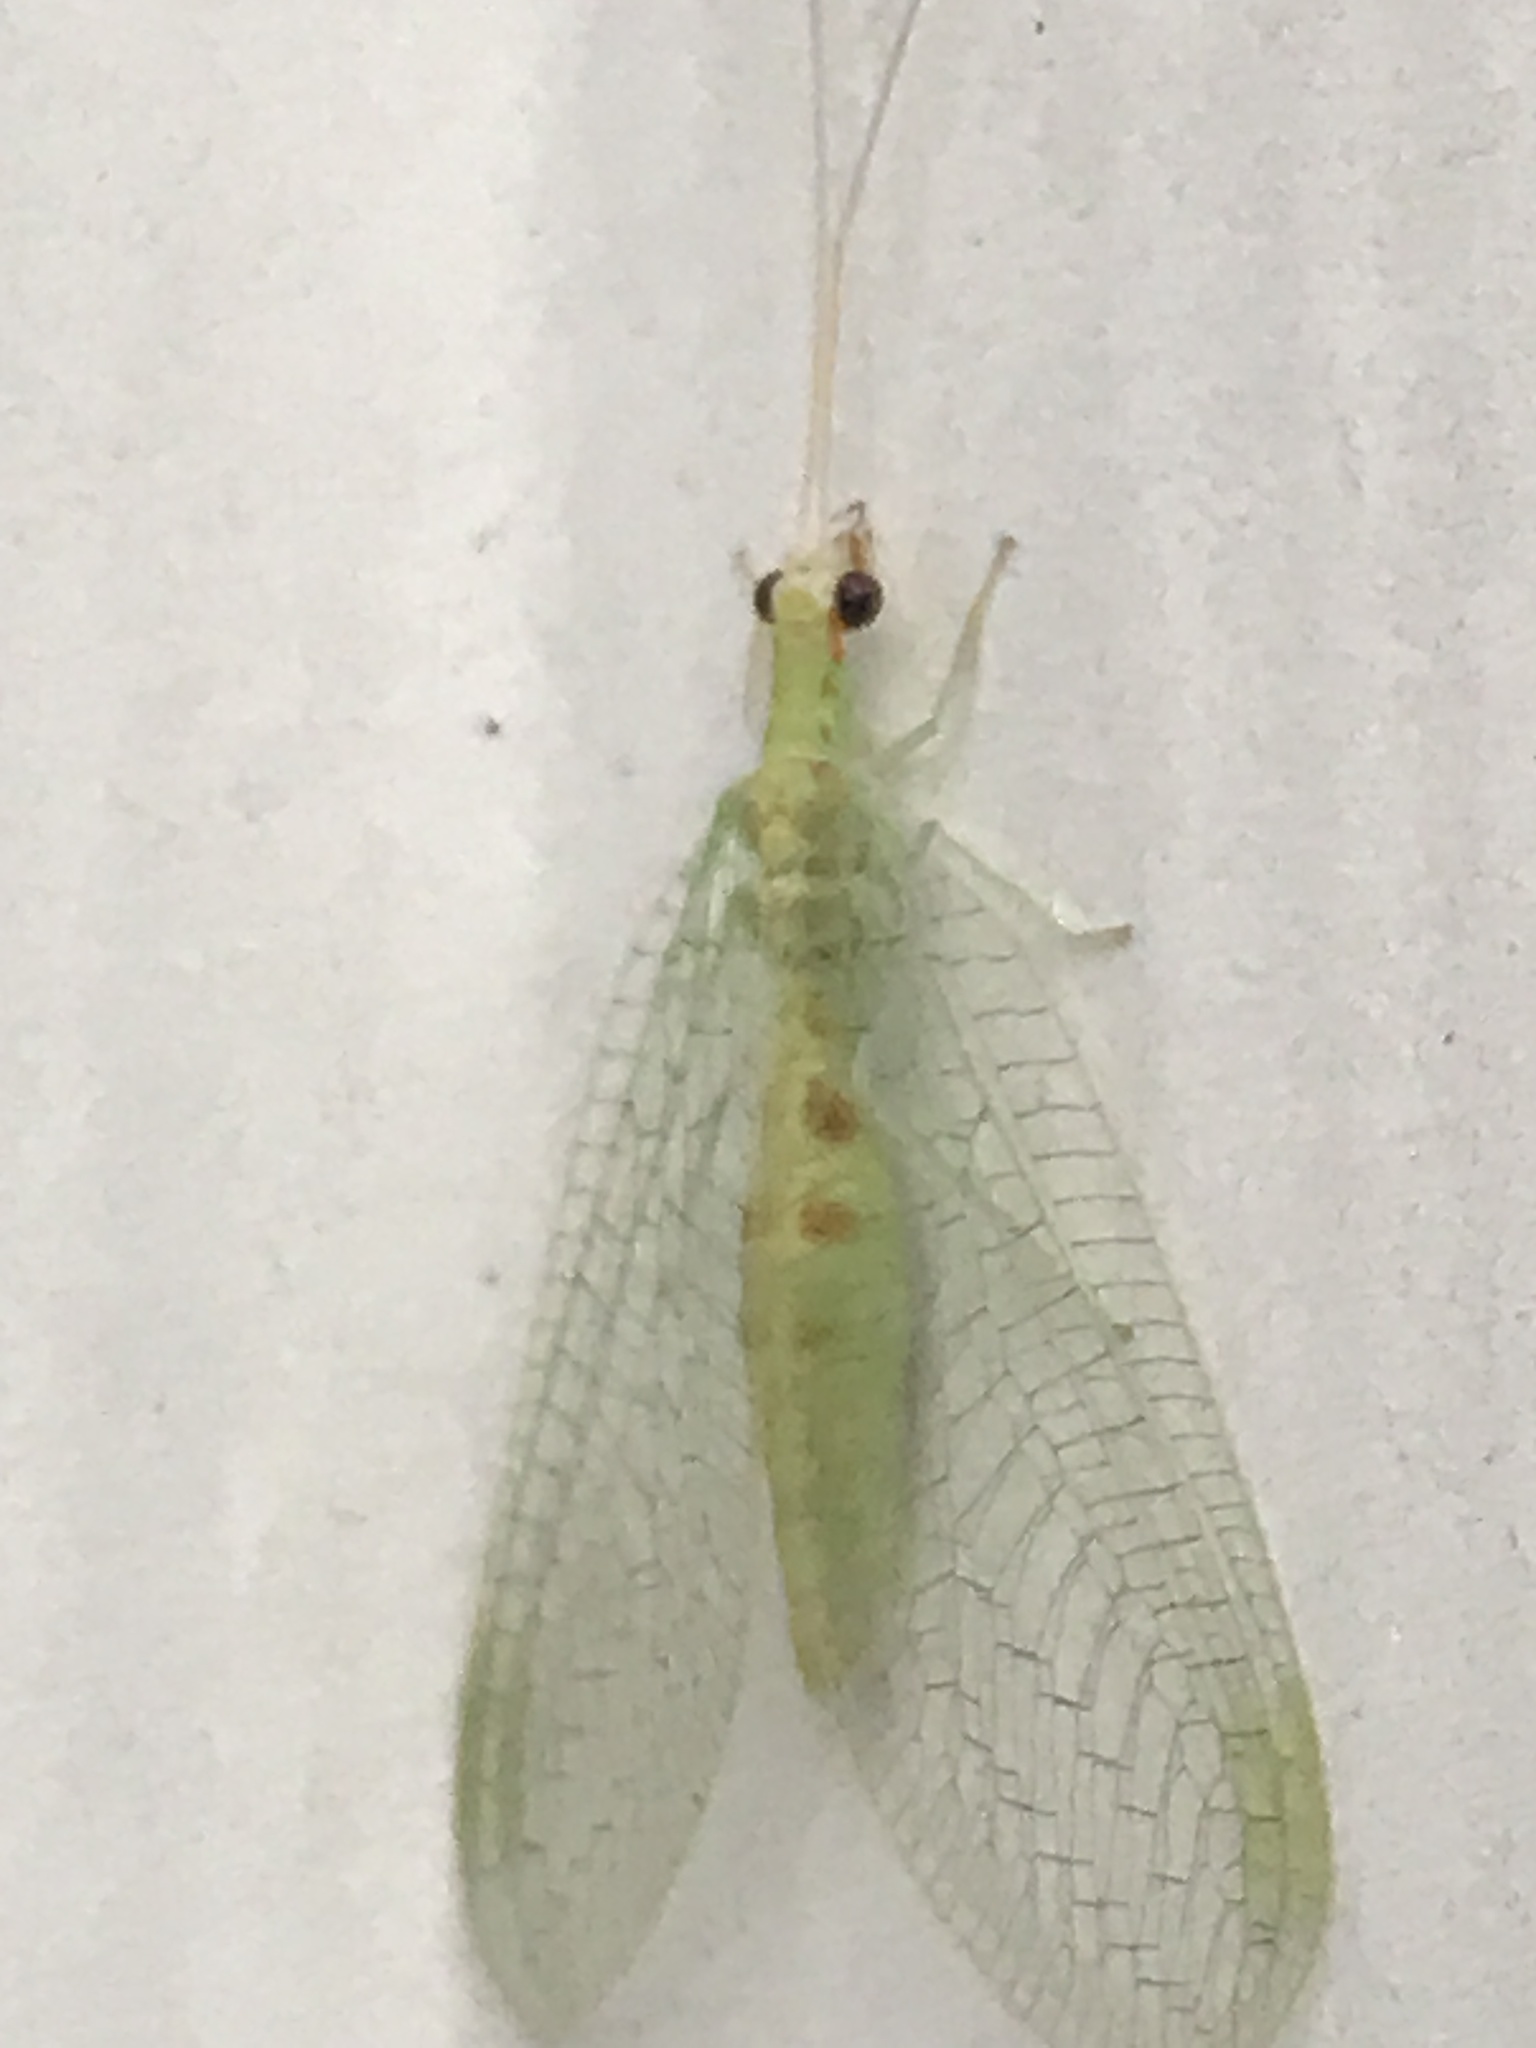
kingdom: Animalia
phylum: Arthropoda
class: Insecta
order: Neuroptera
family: Chrysopidae
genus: Chrysopa
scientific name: Chrysopa quadripunctata
